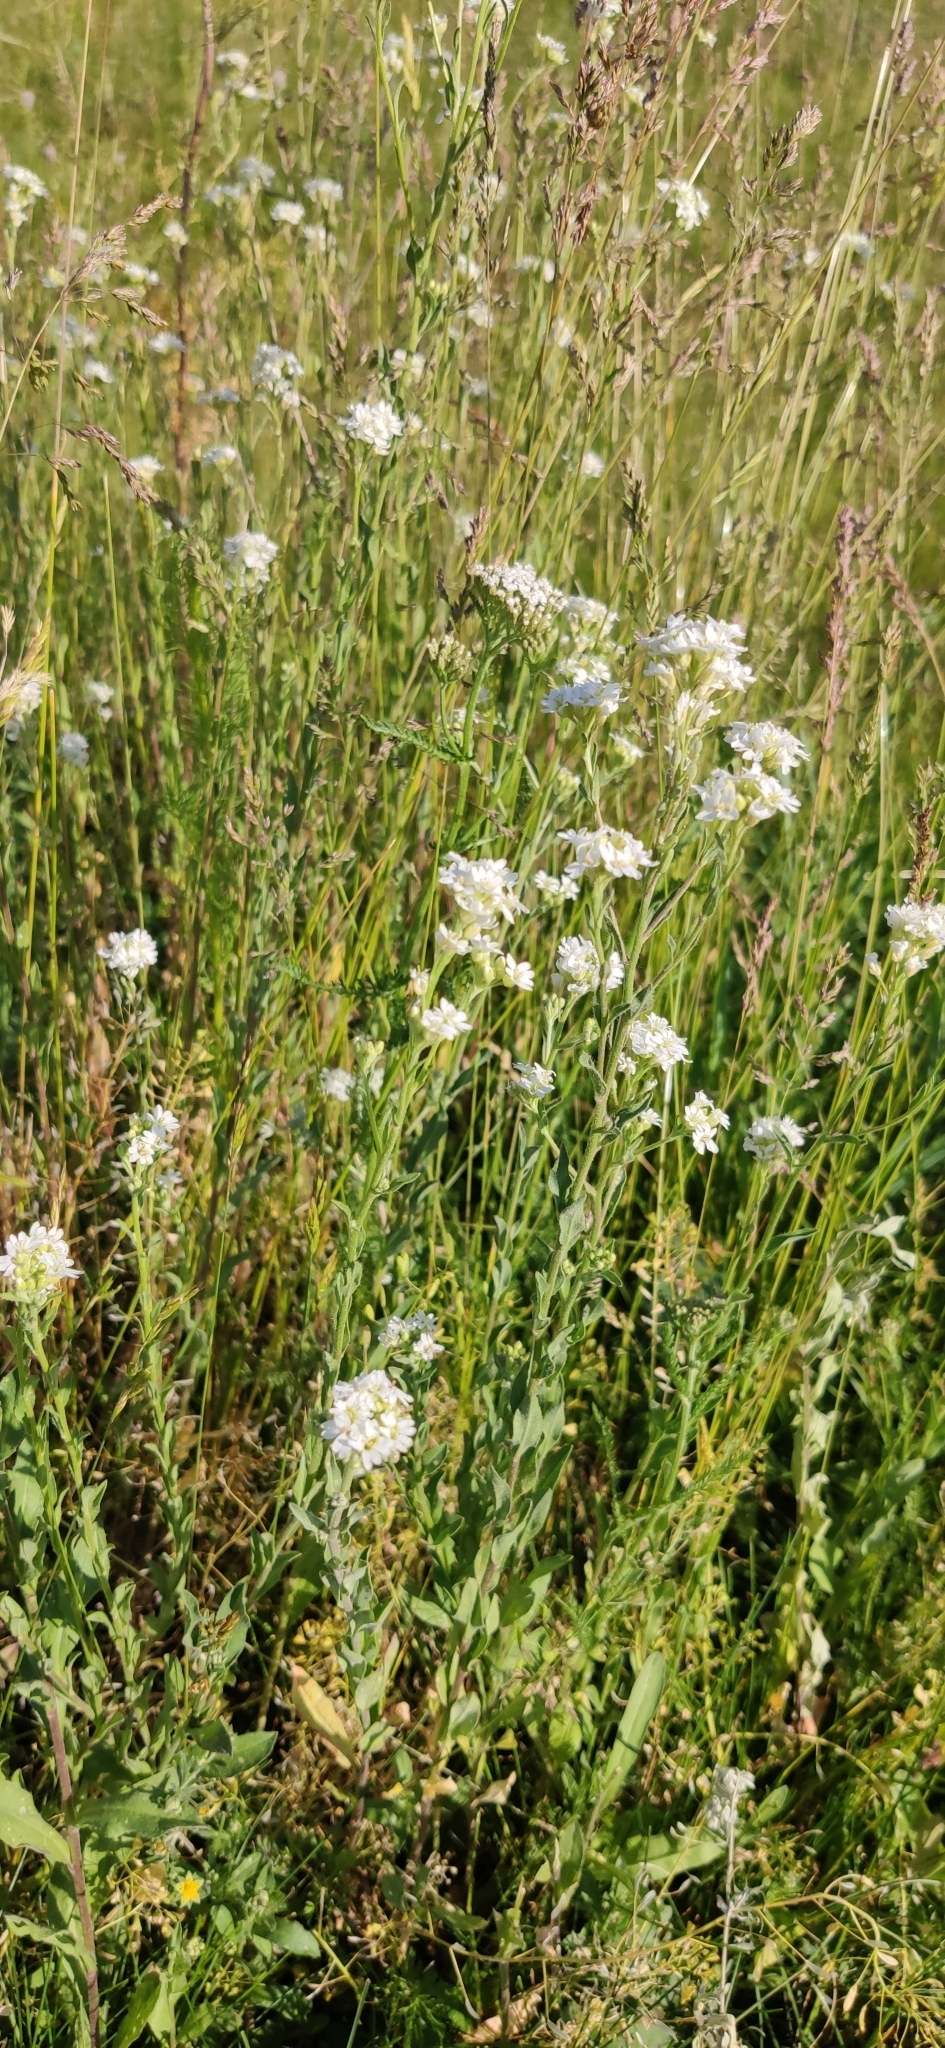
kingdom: Plantae
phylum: Tracheophyta
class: Magnoliopsida
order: Brassicales
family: Brassicaceae
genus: Berteroa
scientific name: Berteroa incana
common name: Hoary alison
